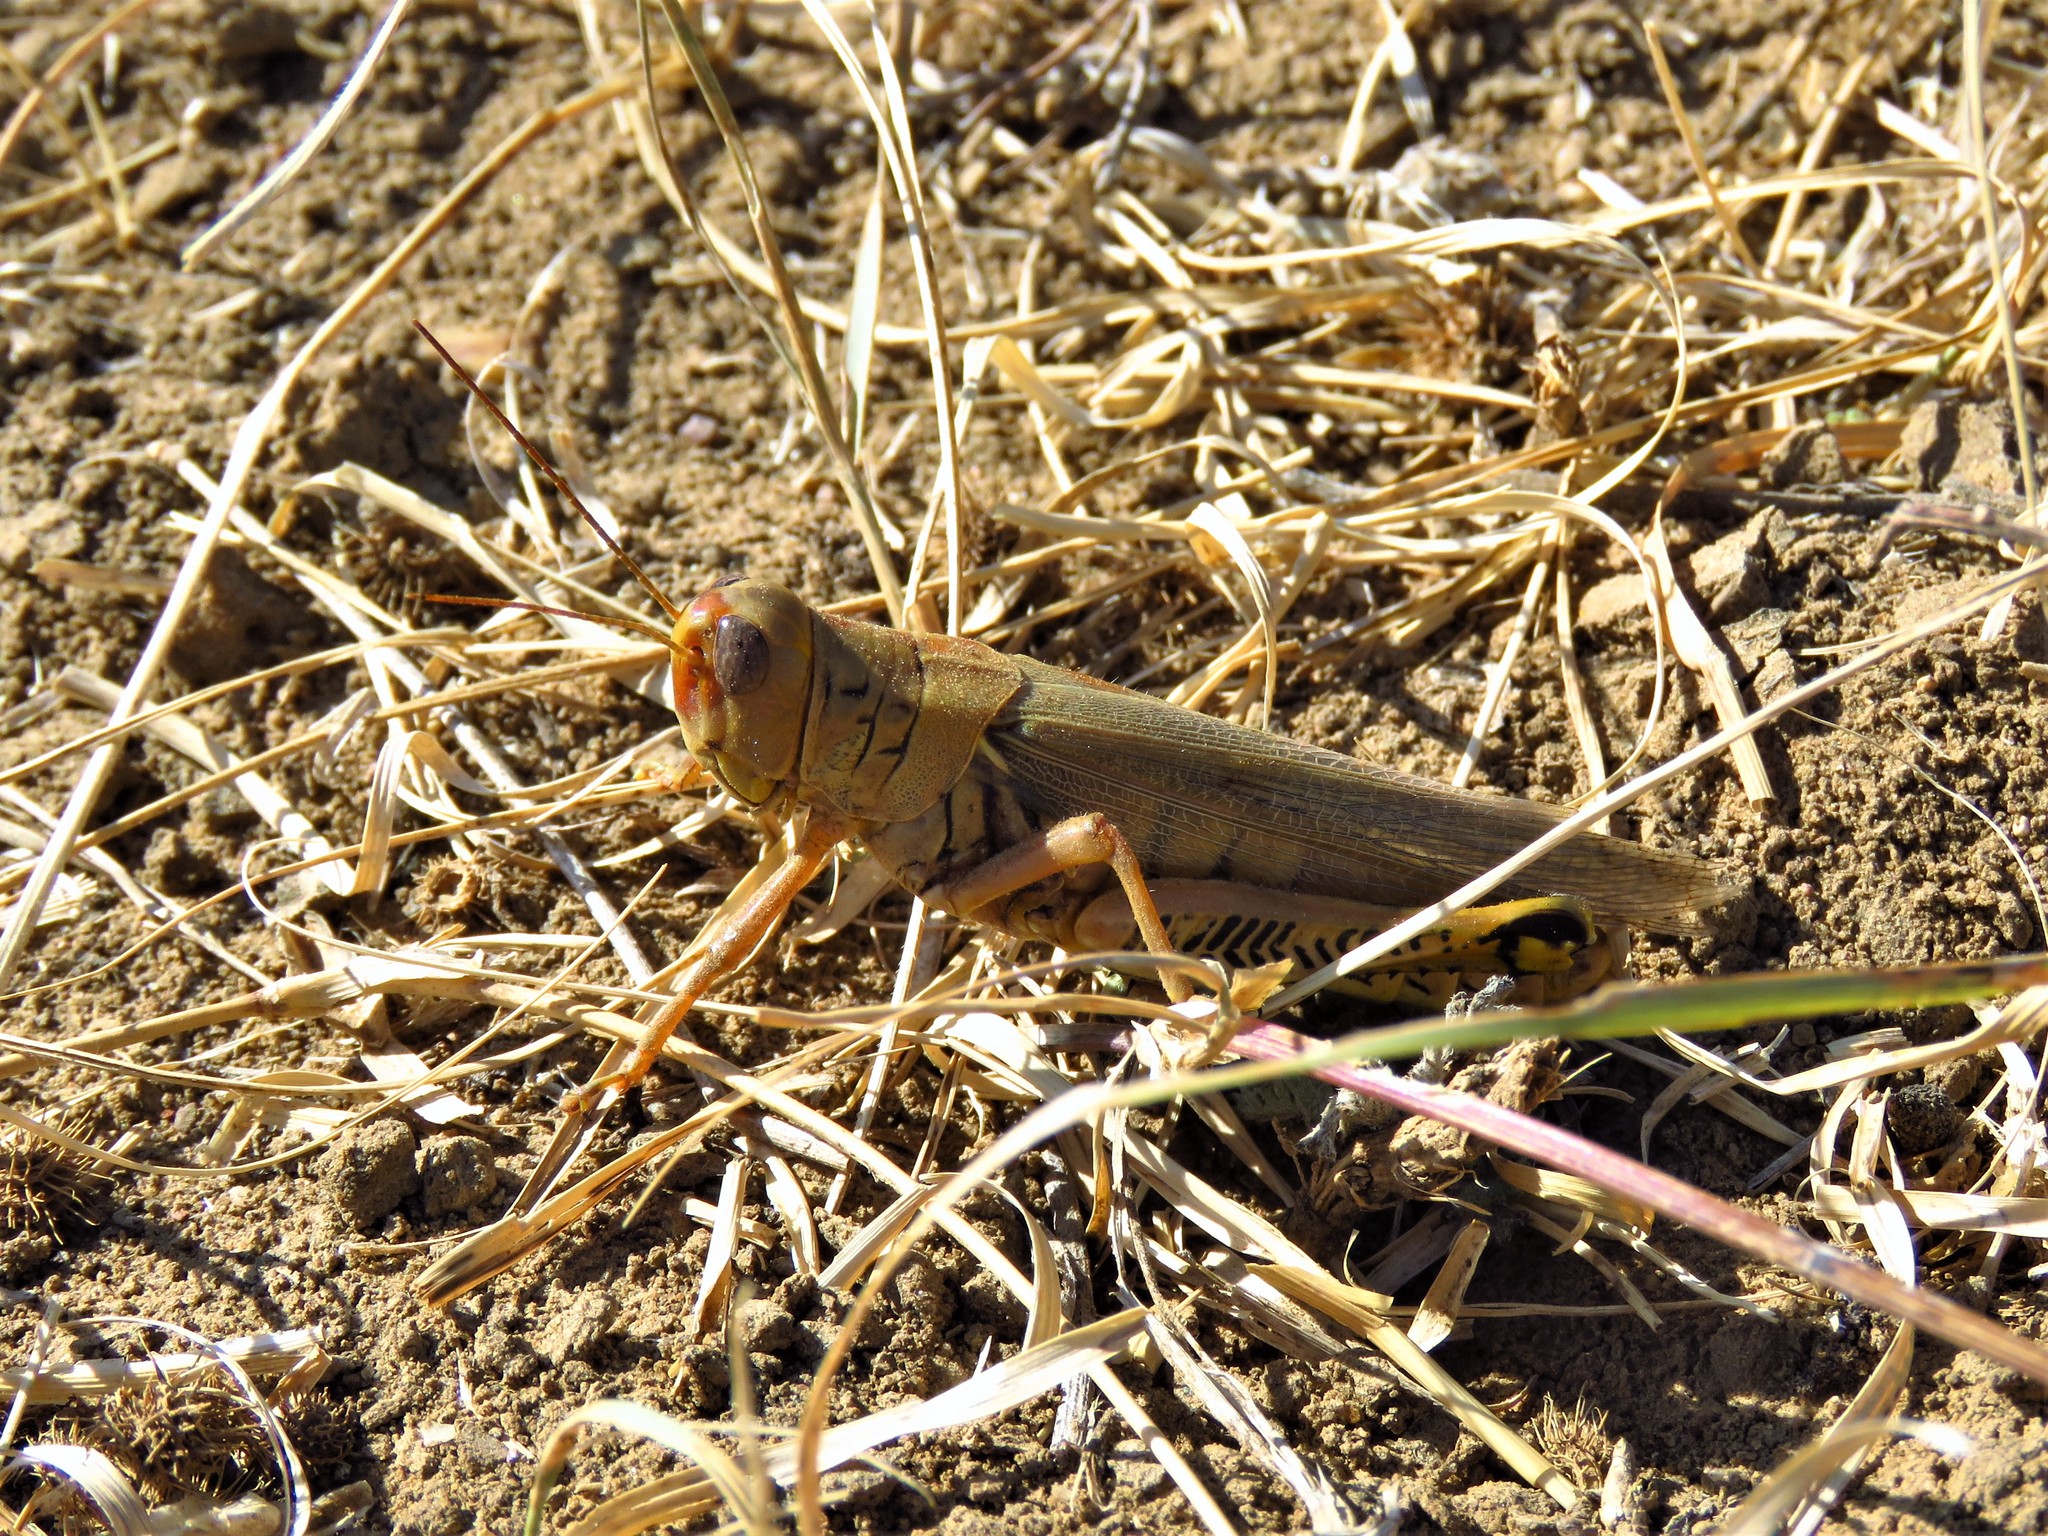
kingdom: Animalia
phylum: Arthropoda
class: Insecta
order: Orthoptera
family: Acrididae
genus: Melanoplus
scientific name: Melanoplus differentialis
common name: Differential grasshopper
